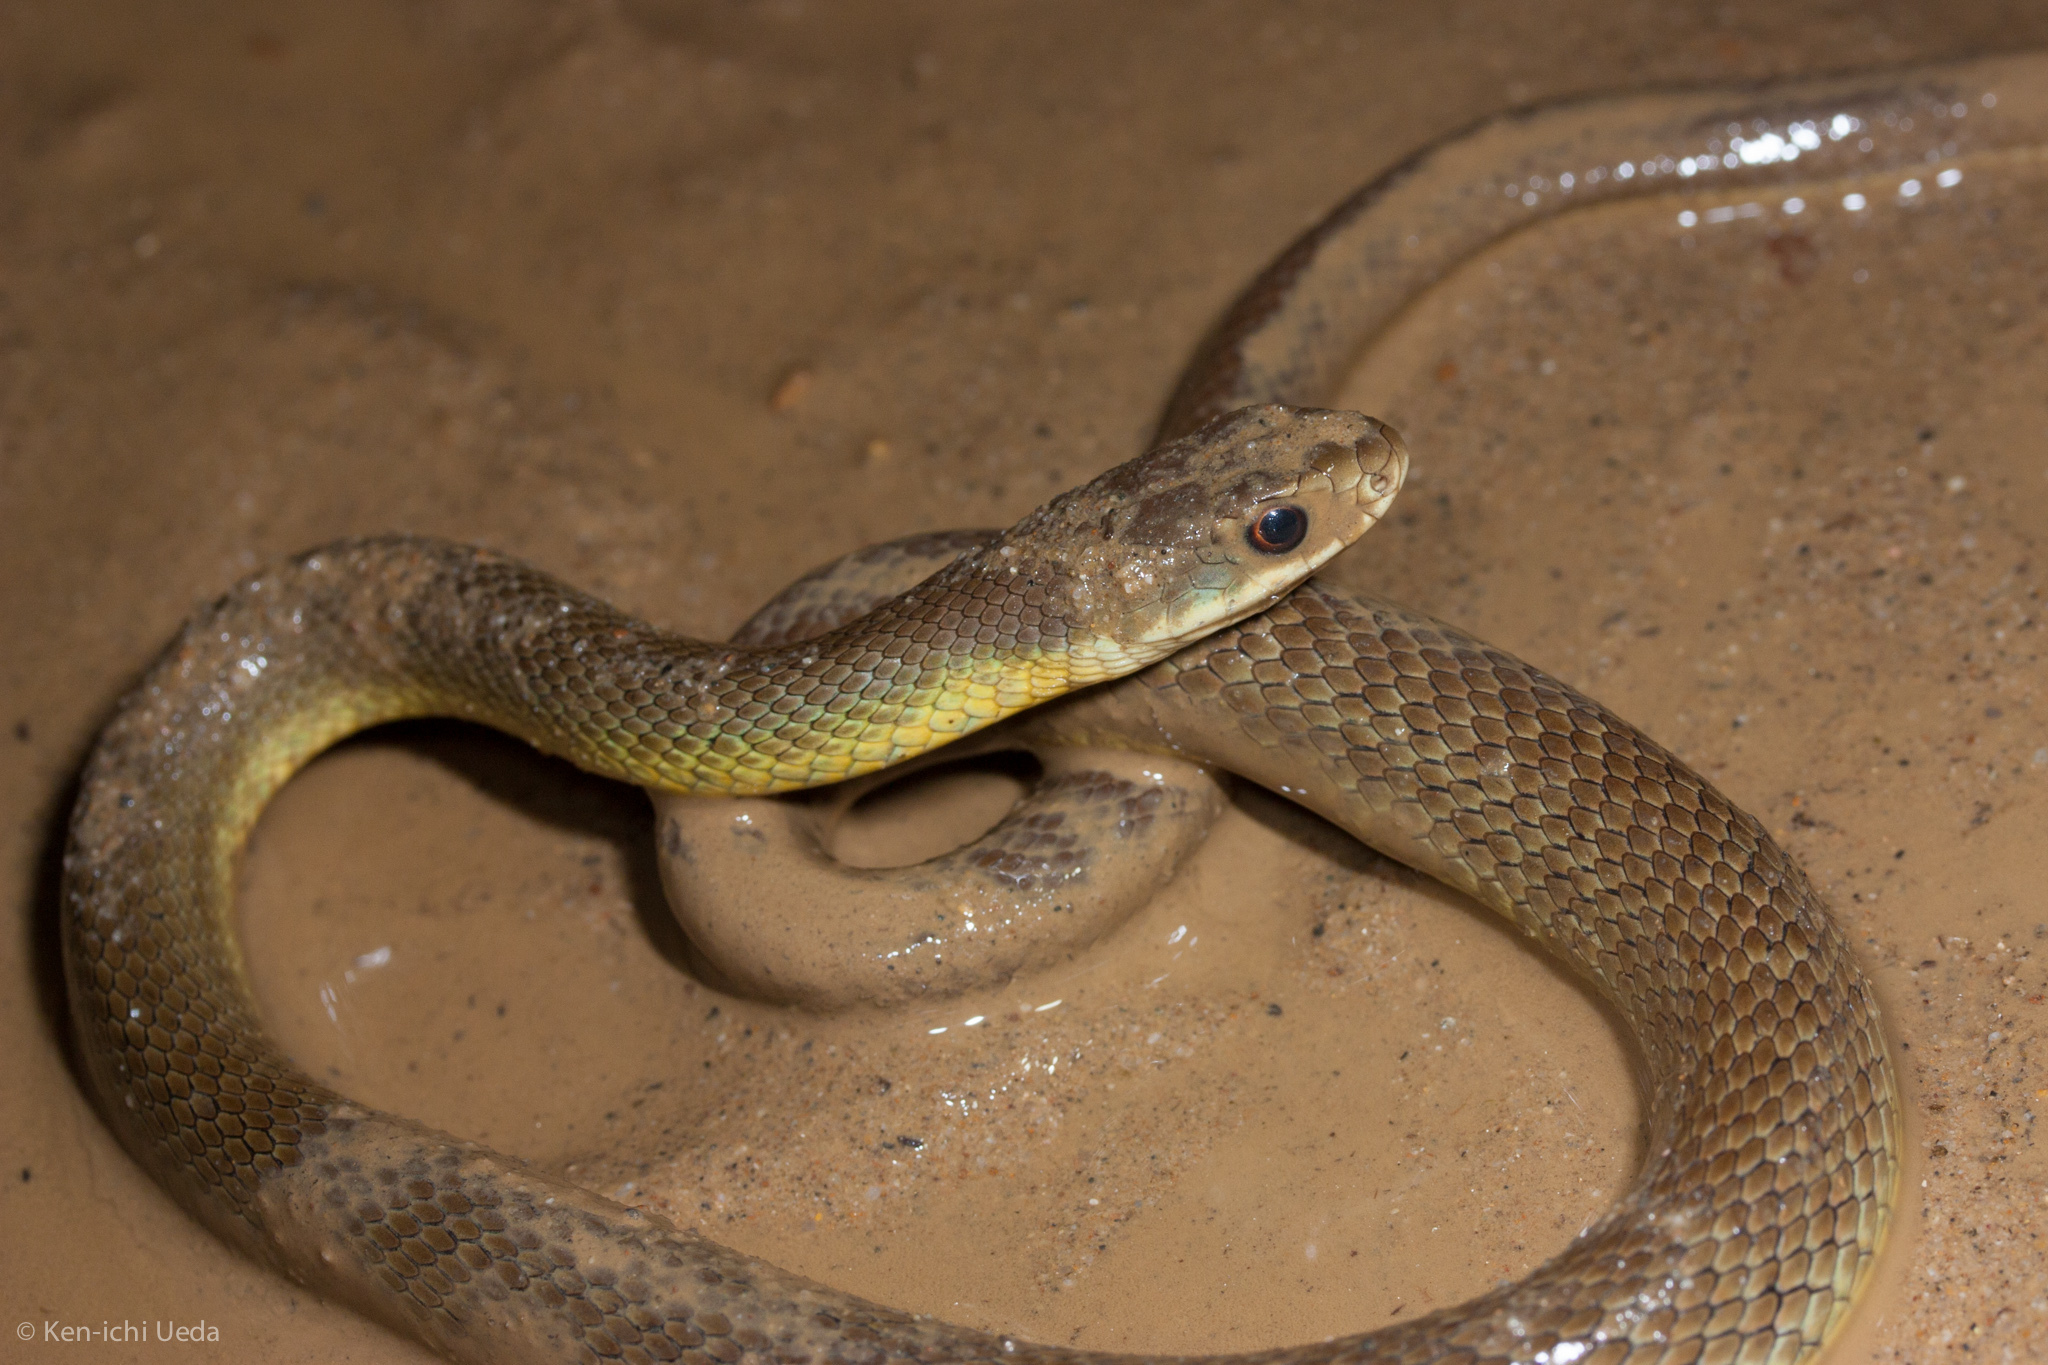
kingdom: Animalia
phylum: Chordata
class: Squamata
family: Colubridae
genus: Coluber
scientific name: Coluber constrictor
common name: Eastern racer
